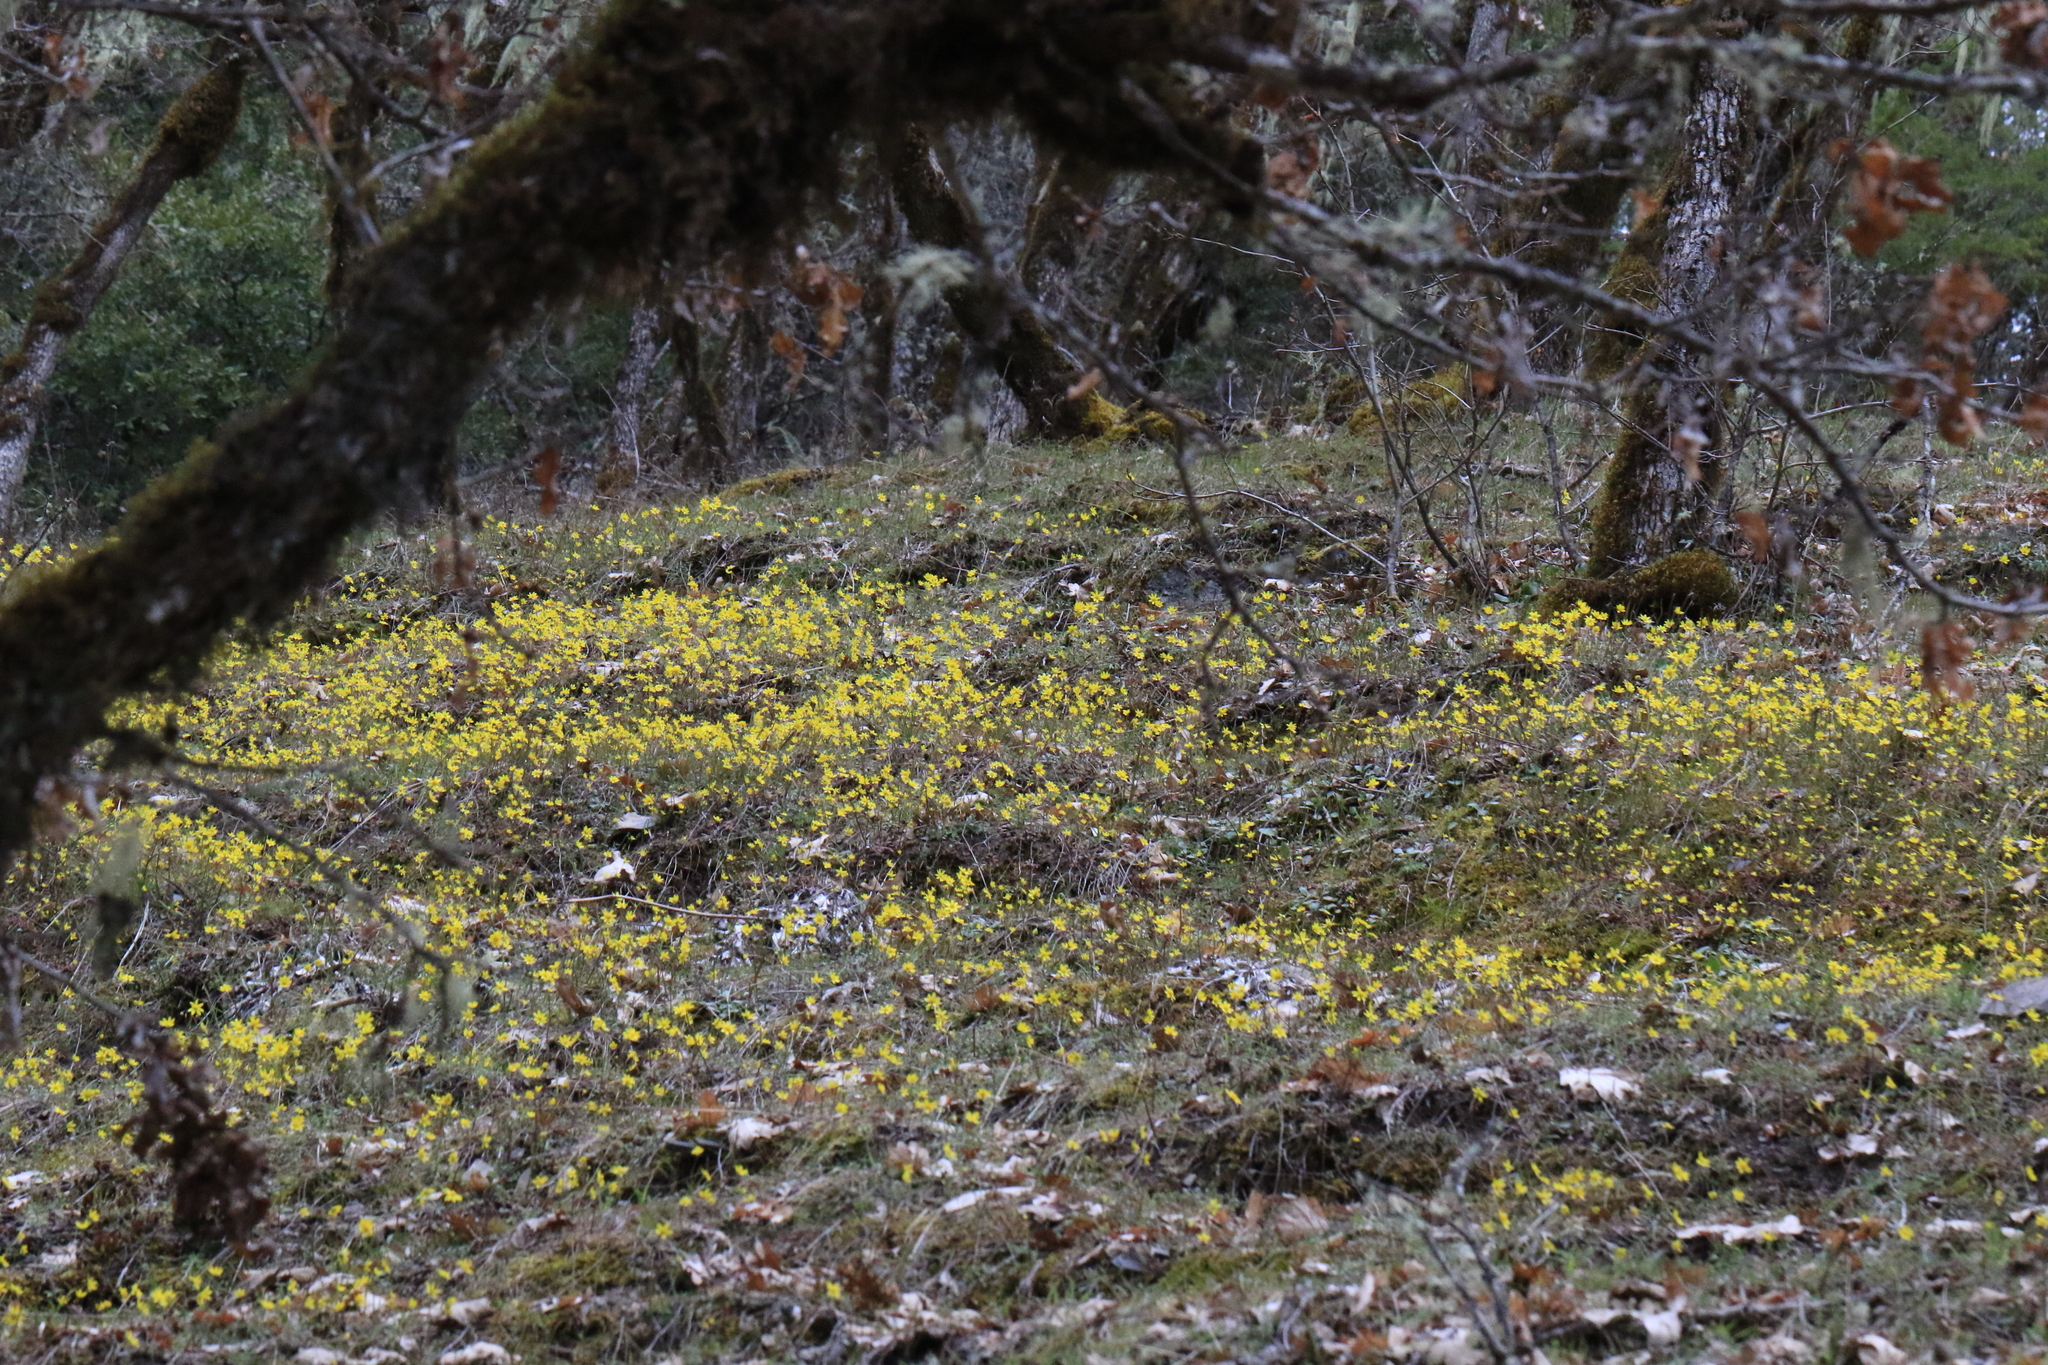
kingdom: Plantae
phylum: Tracheophyta
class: Magnoliopsida
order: Asterales
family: Asteraceae
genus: Crocidium
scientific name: Crocidium multicaule
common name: Common spring gold
